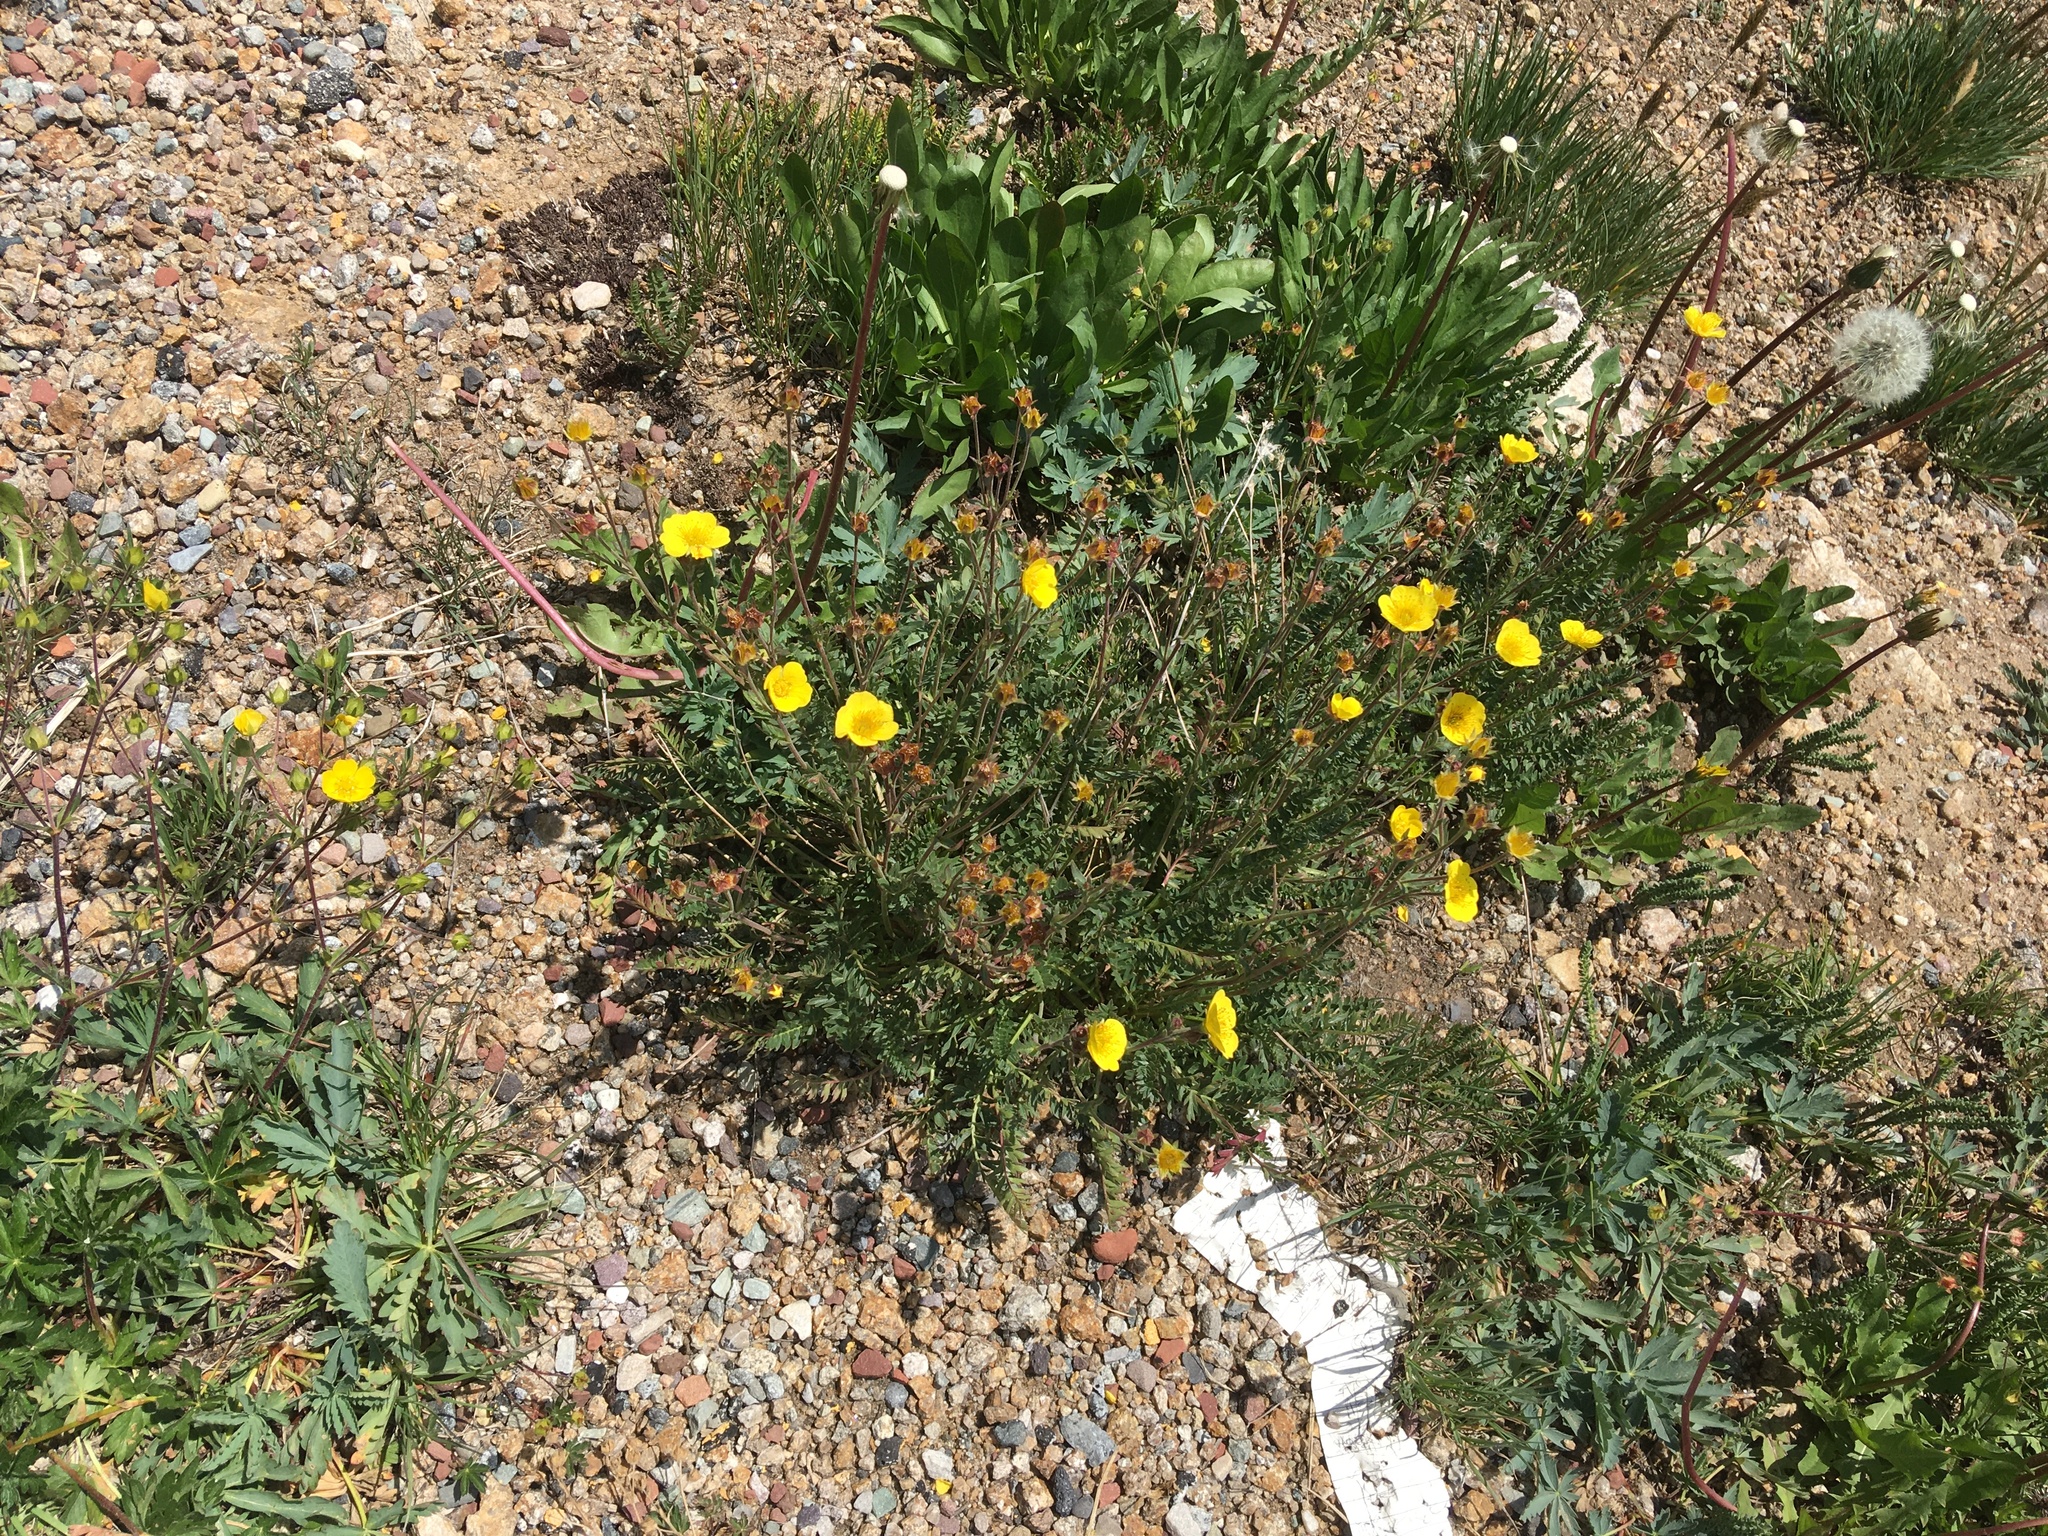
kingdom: Plantae
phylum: Tracheophyta
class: Magnoliopsida
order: Rosales
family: Rosaceae
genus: Geum
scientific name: Geum rossii
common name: Alpine avens
